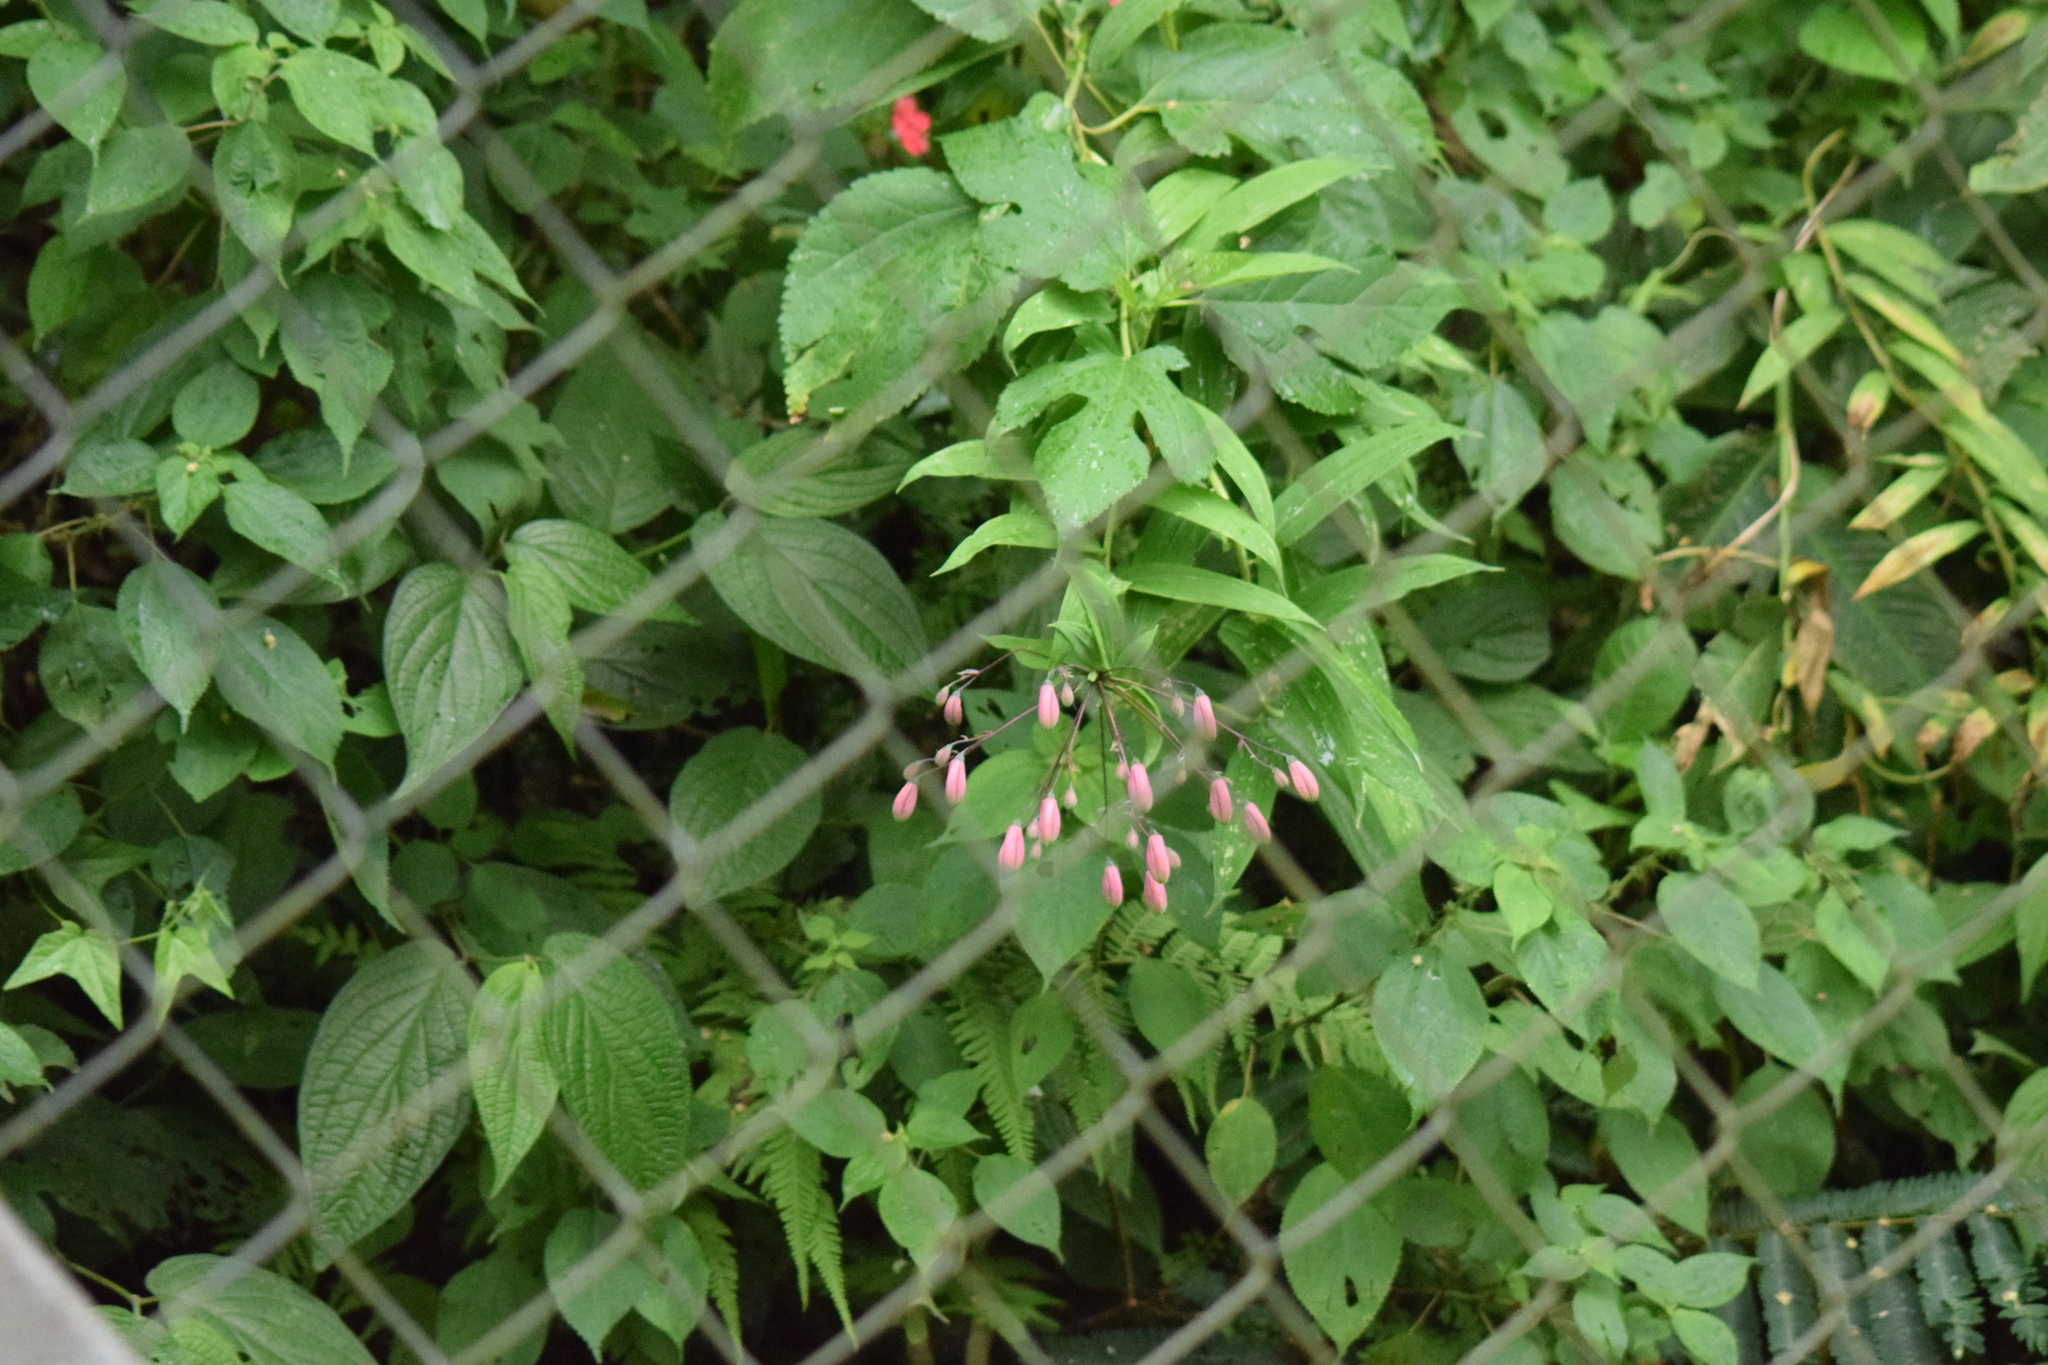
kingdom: Plantae
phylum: Tracheophyta
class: Liliopsida
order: Liliales
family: Alstroemeriaceae
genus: Bomarea
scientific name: Bomarea edulis
